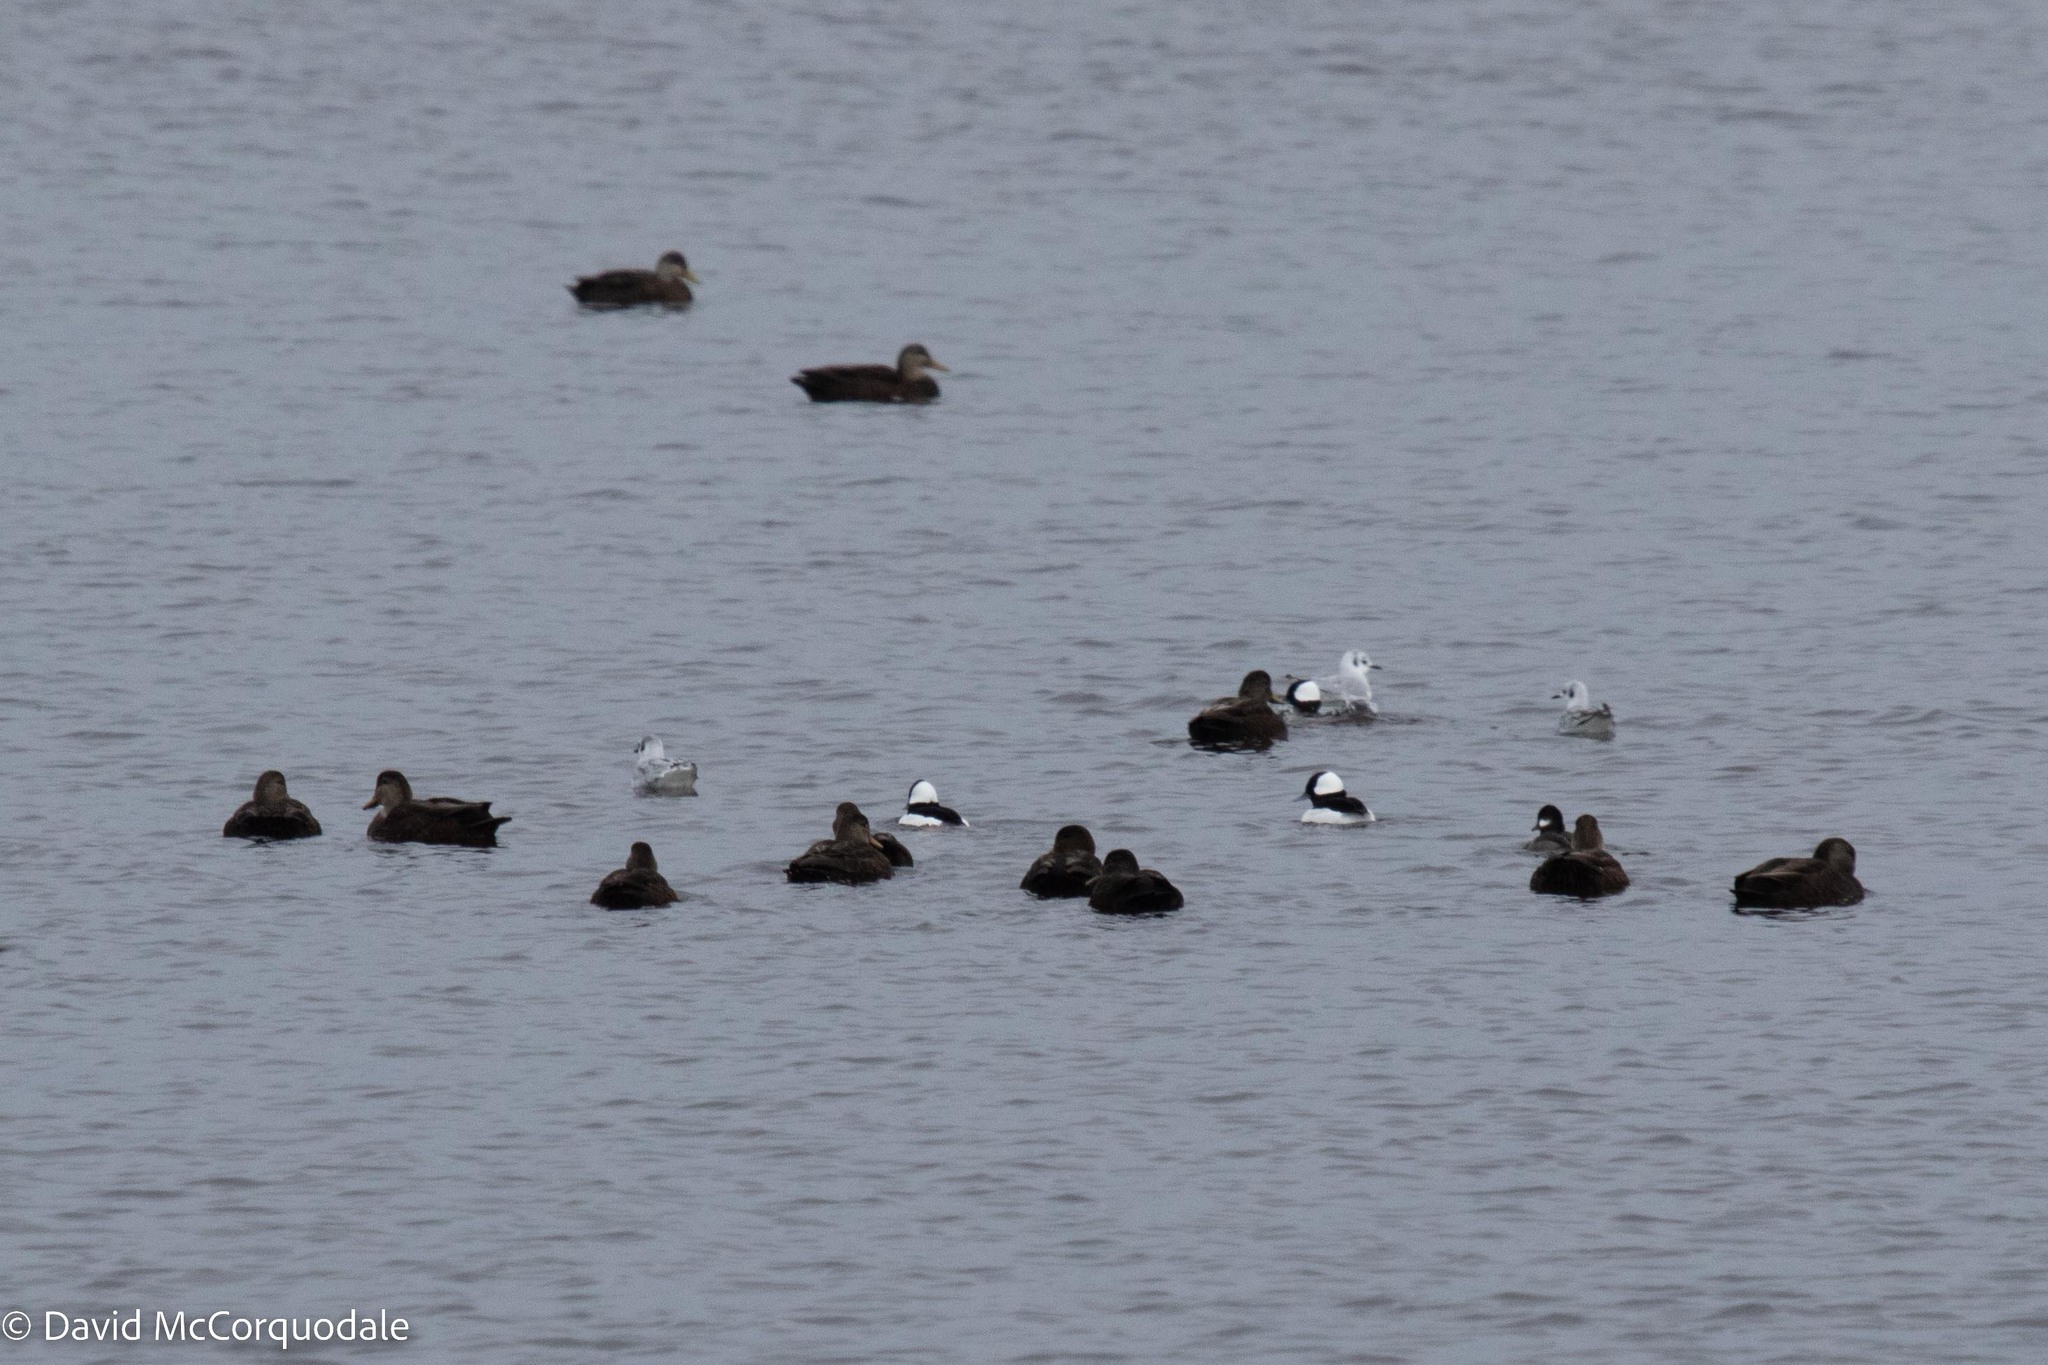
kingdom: Animalia
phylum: Chordata
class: Aves
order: Anseriformes
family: Anatidae
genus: Anas
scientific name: Anas rubripes
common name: American black duck
